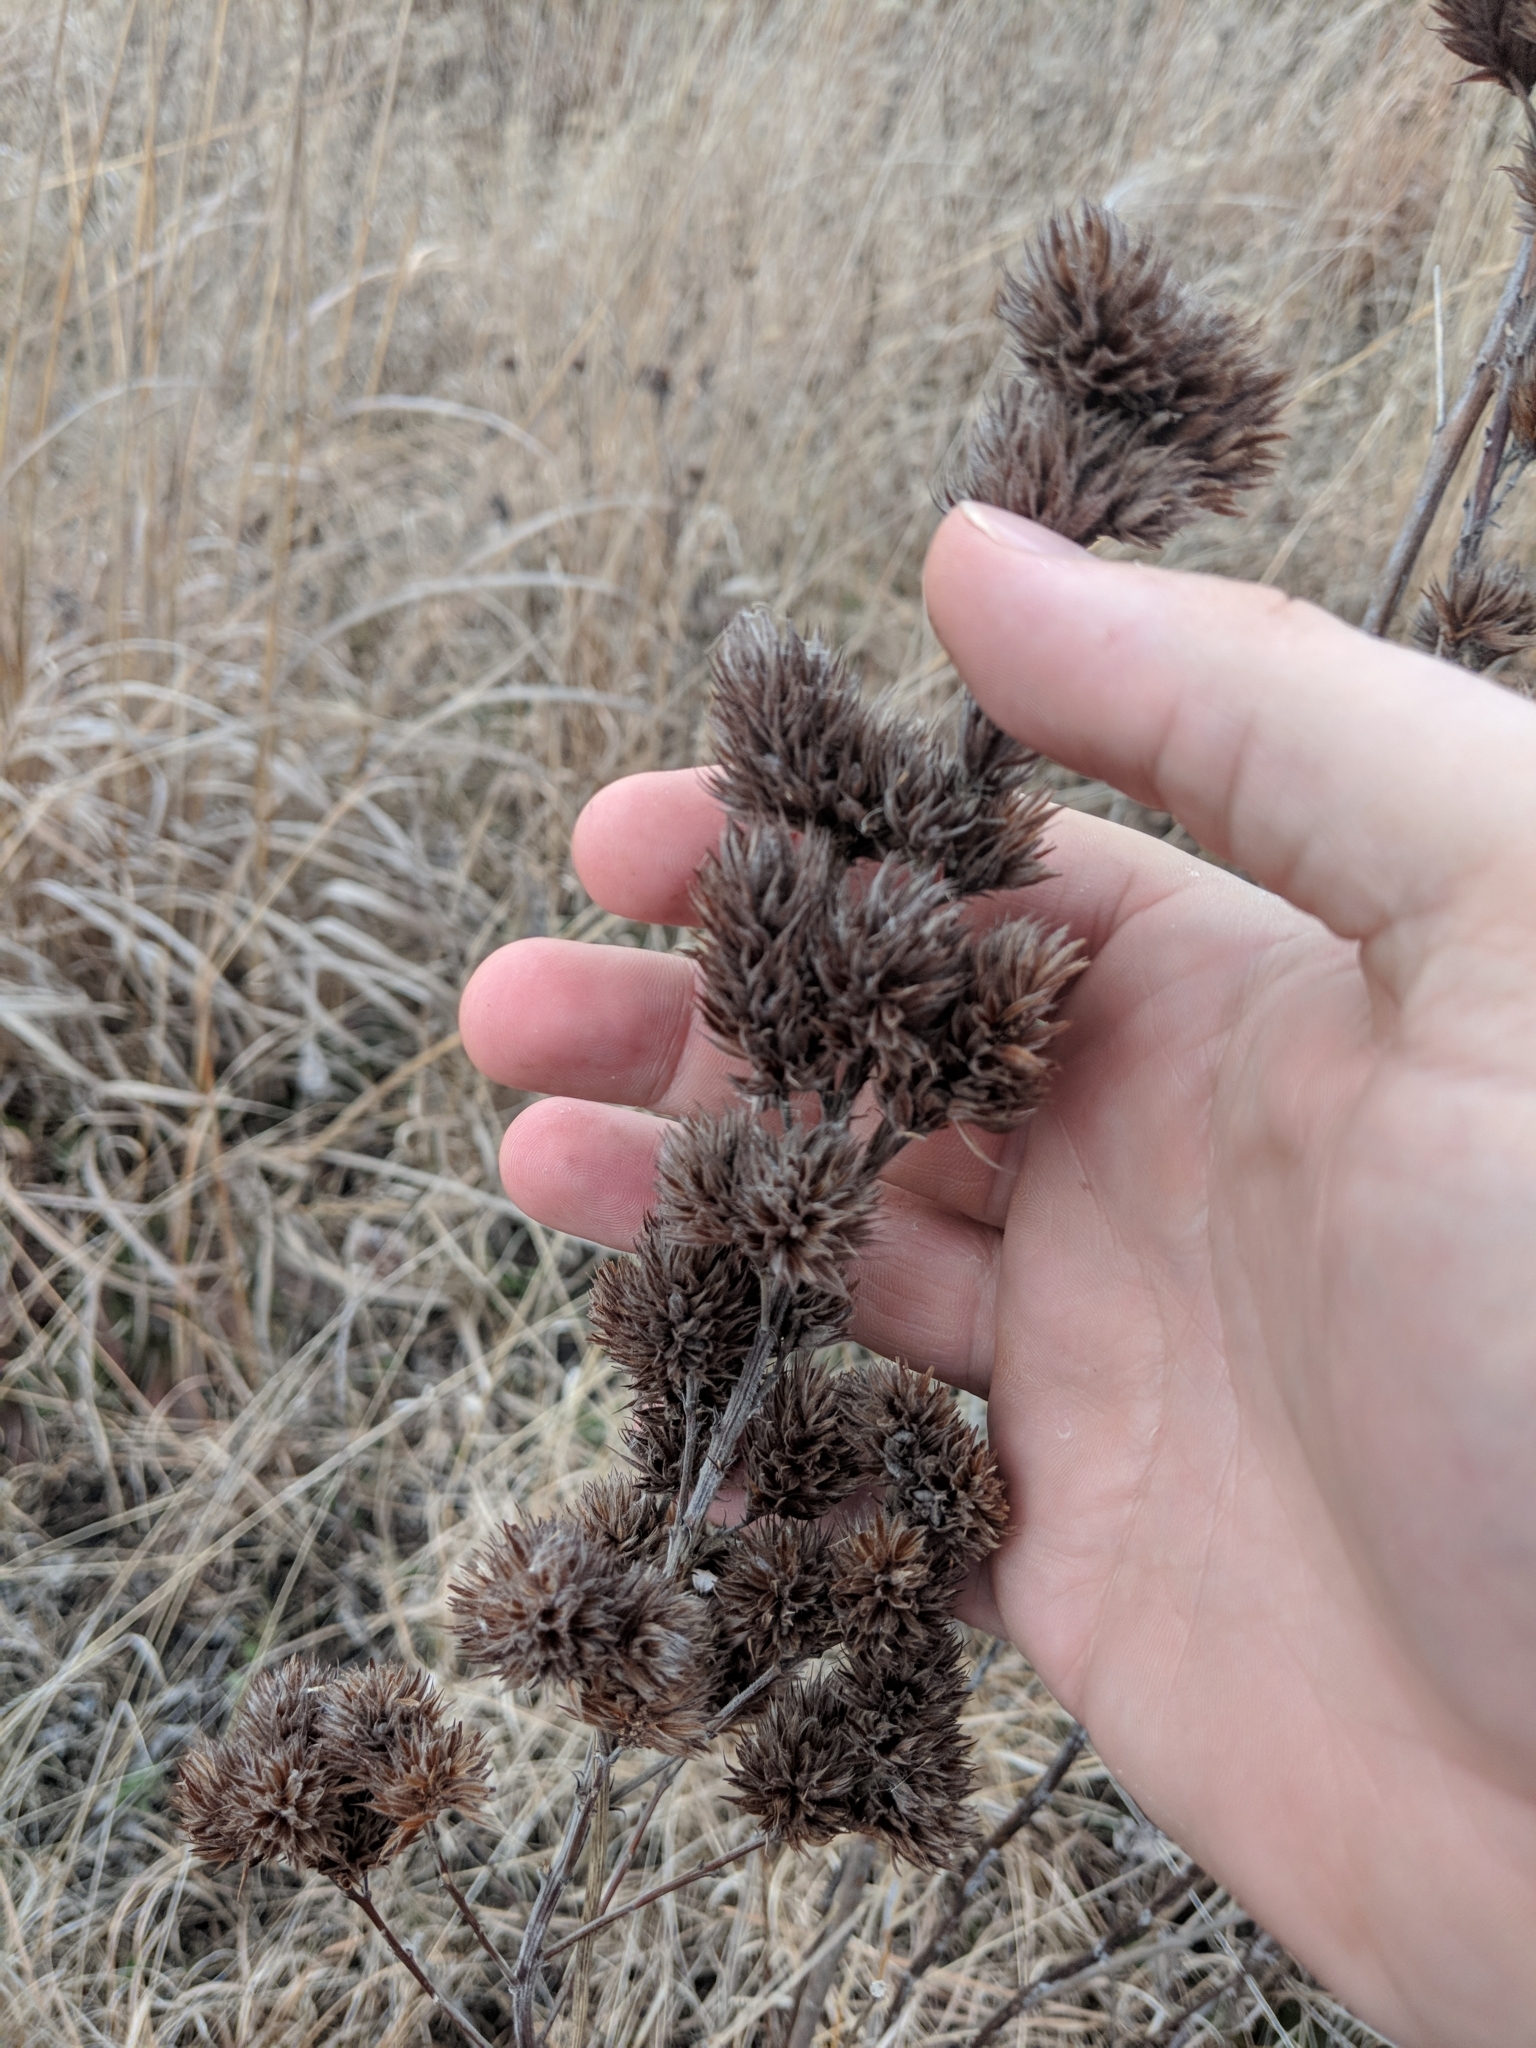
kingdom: Plantae
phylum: Tracheophyta
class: Magnoliopsida
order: Fabales
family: Fabaceae
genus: Lespedeza
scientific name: Lespedeza capitata
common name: Dusty clover
